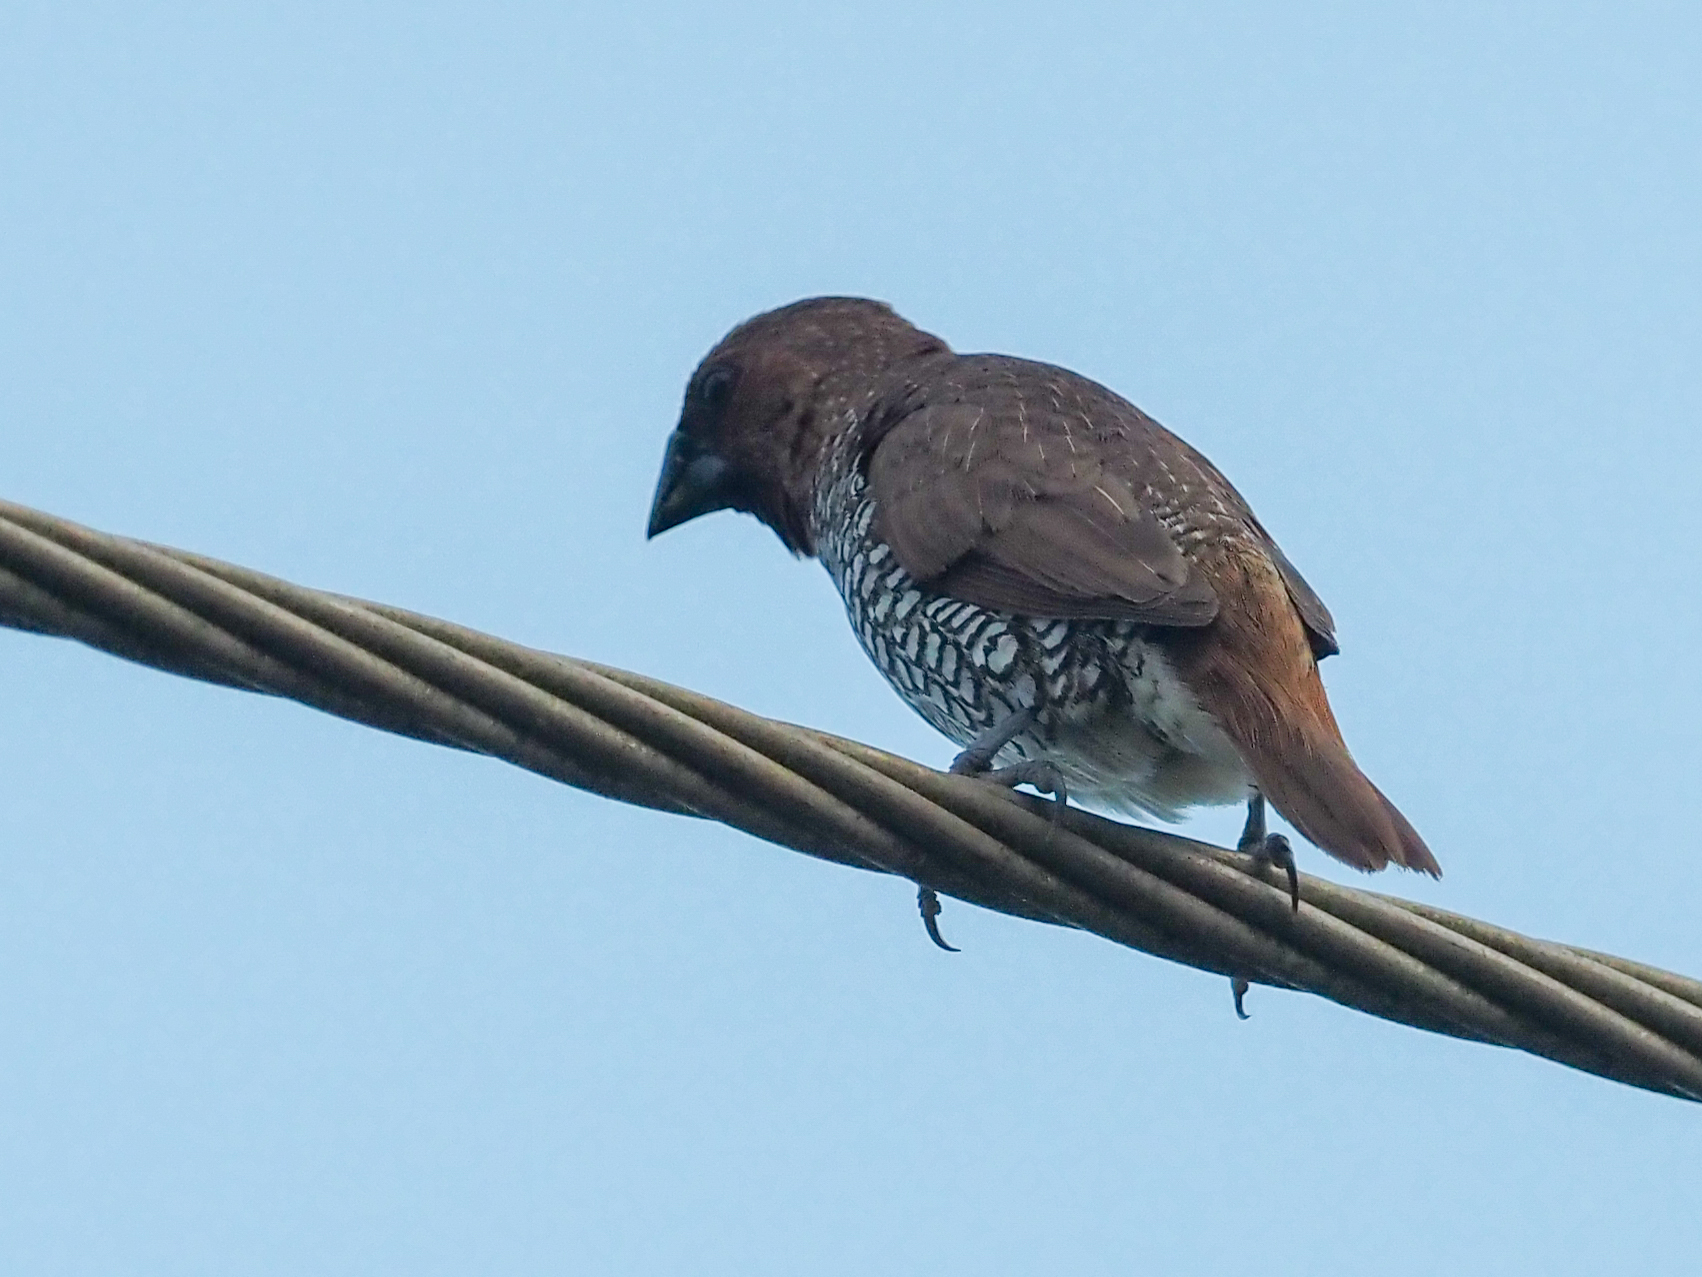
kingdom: Animalia
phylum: Chordata
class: Aves
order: Passeriformes
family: Estrildidae
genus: Lonchura
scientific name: Lonchura punctulata
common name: Scaly-breasted munia
